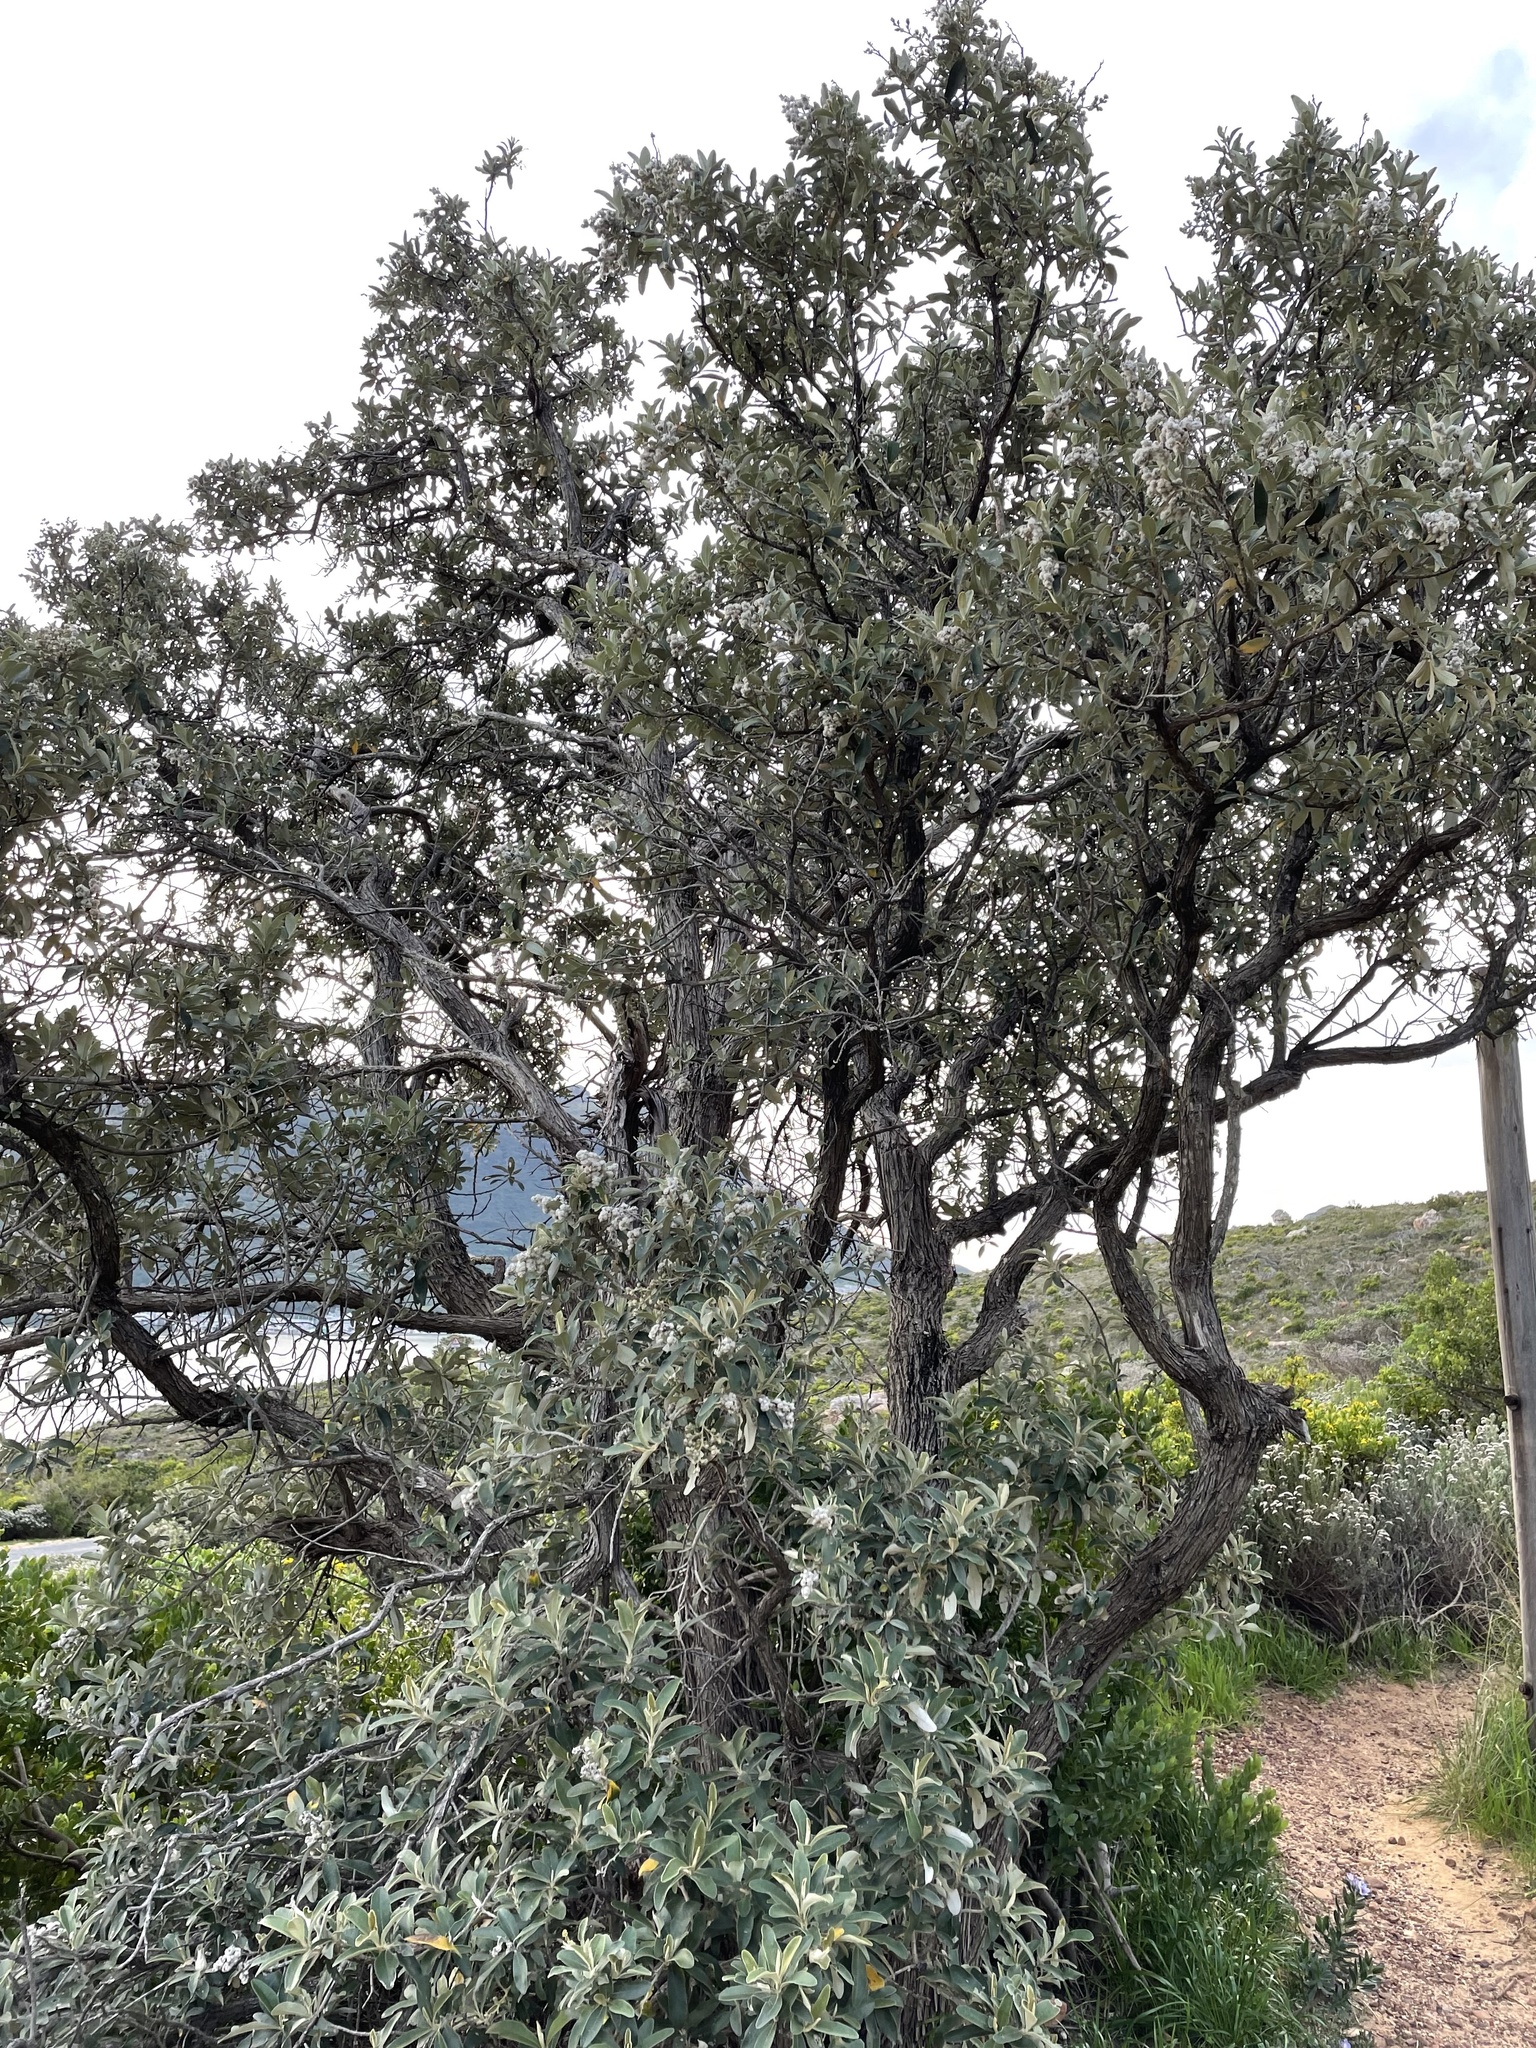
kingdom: Plantae
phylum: Tracheophyta
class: Magnoliopsida
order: Asterales
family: Asteraceae
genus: Tarchonanthus
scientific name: Tarchonanthus littoralis
